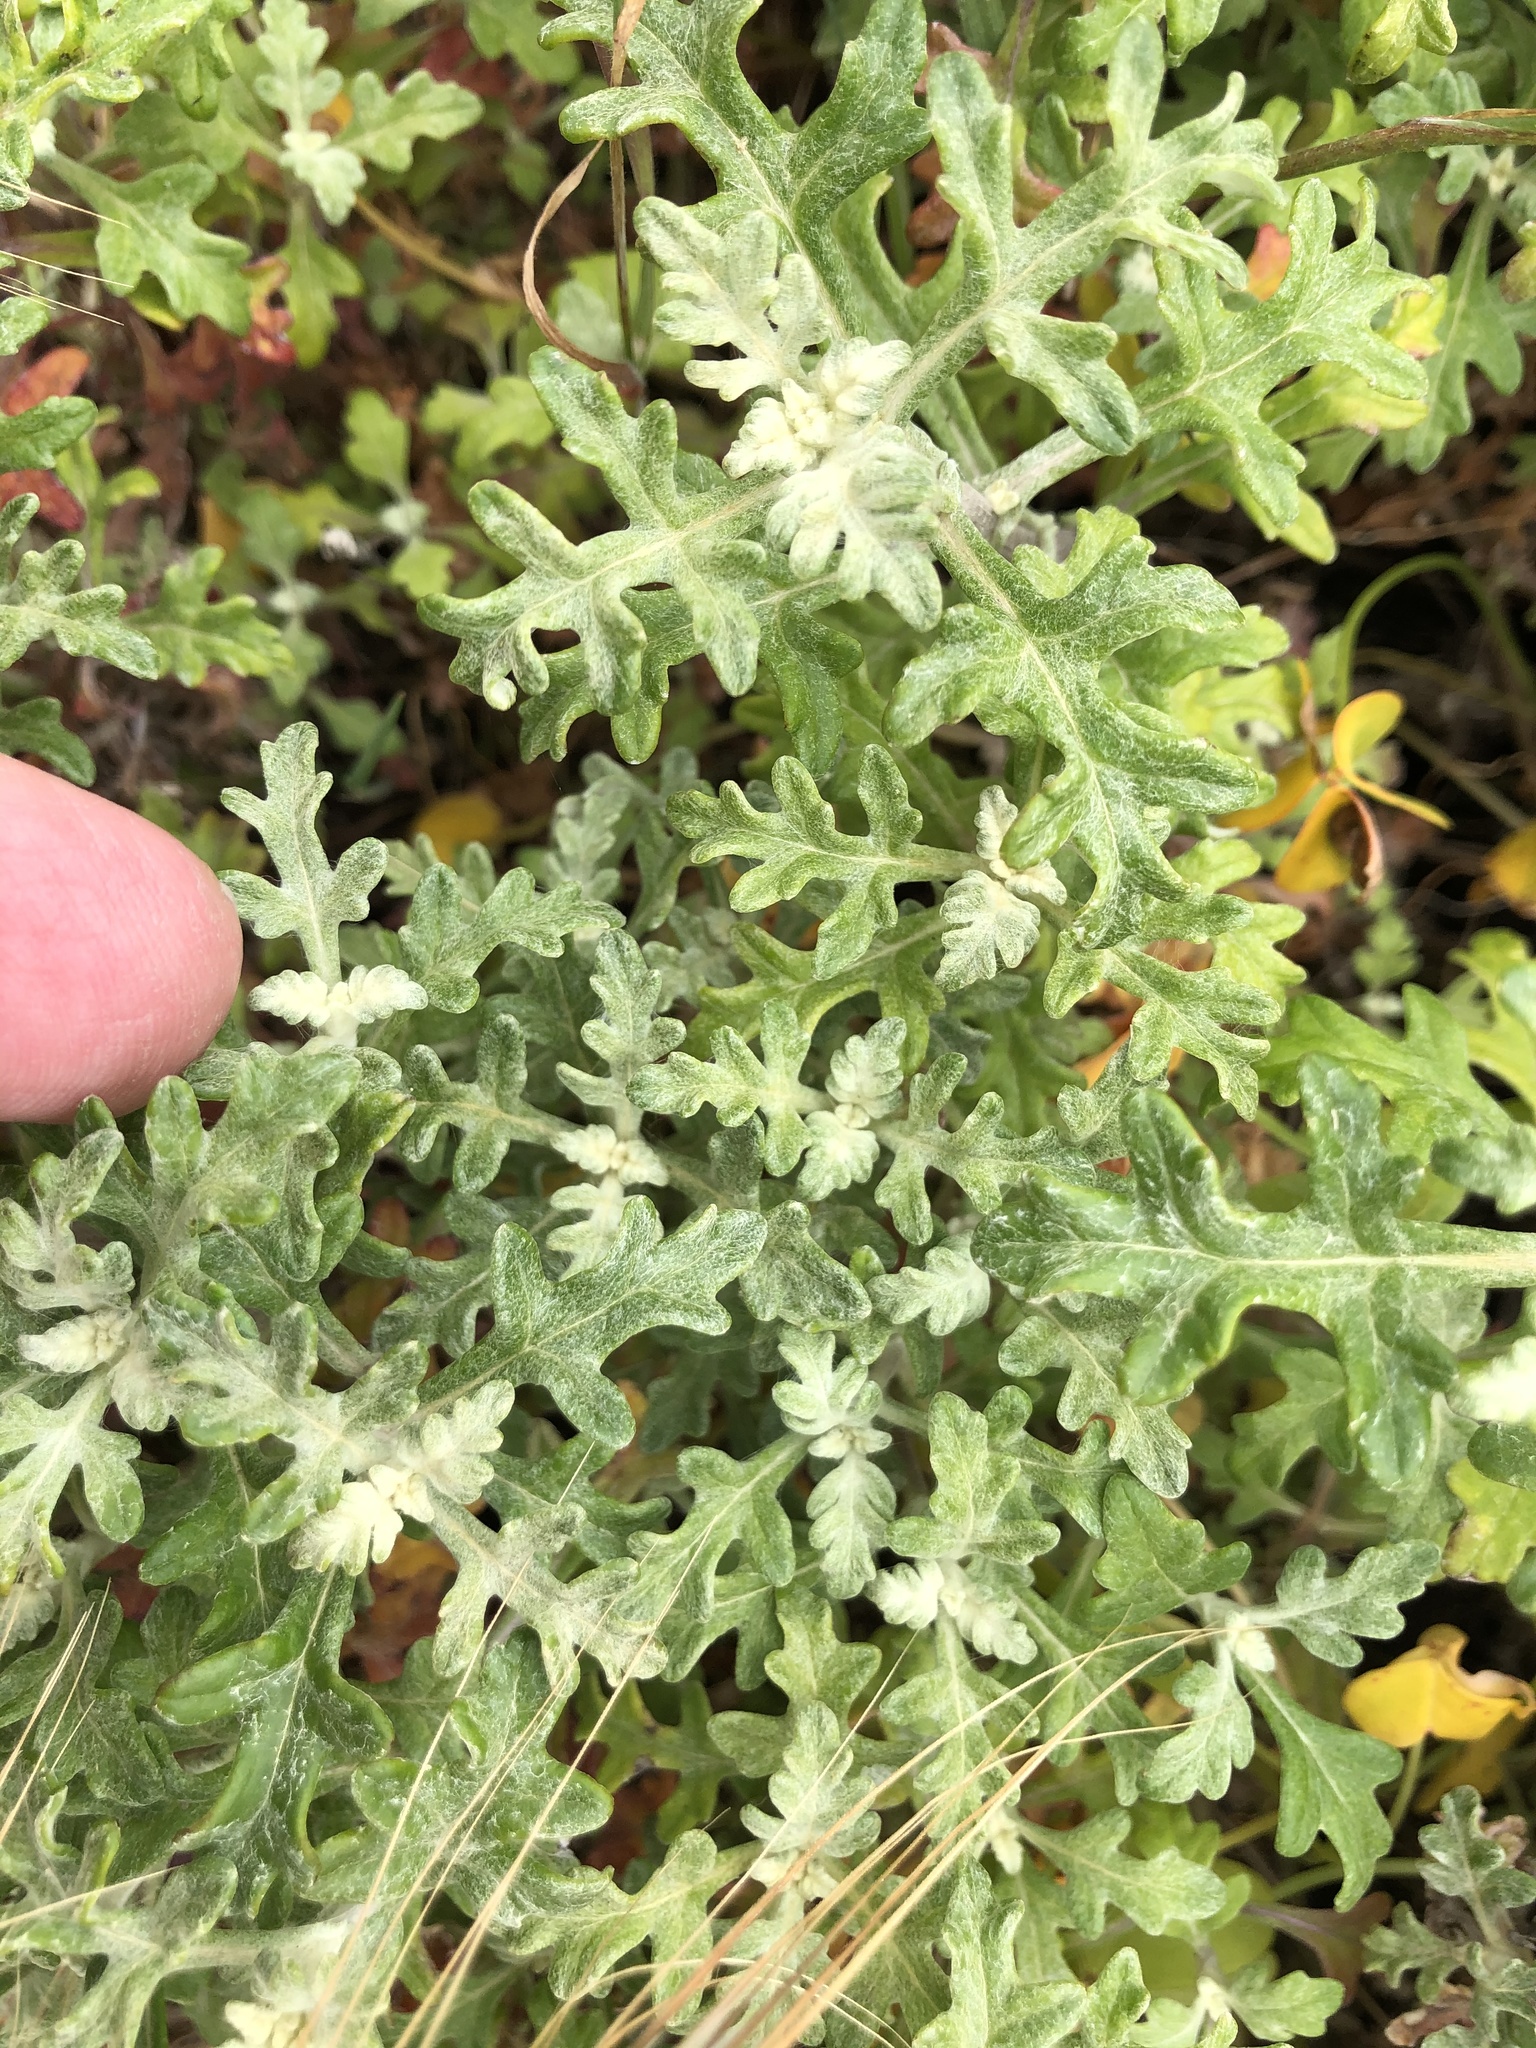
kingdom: Plantae
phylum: Tracheophyta
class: Magnoliopsida
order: Asterales
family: Asteraceae
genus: Eriophyllum
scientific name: Eriophyllum staechadifolium
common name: Lizardtail
